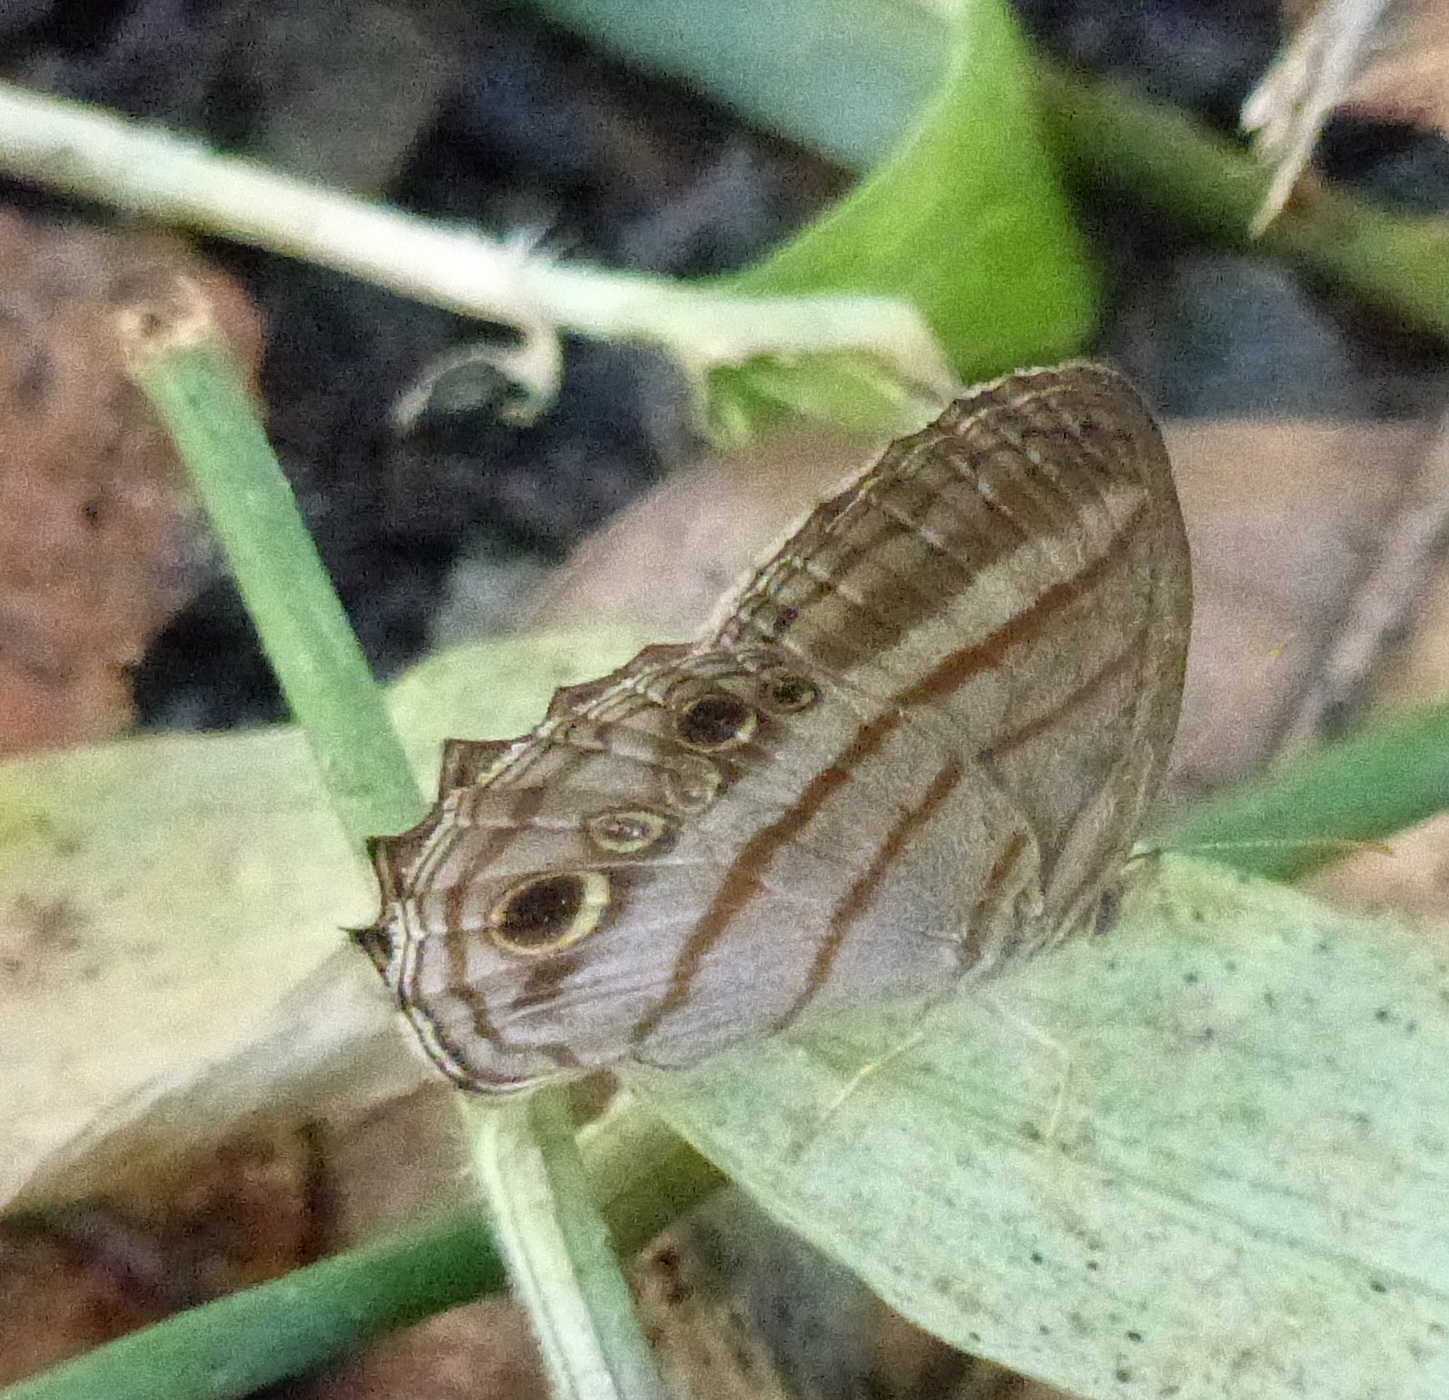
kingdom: Animalia
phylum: Arthropoda
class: Insecta
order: Lepidoptera
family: Nymphalidae
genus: Magneuptychia
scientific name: Magneuptychia libye
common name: Blue-gray satyr
